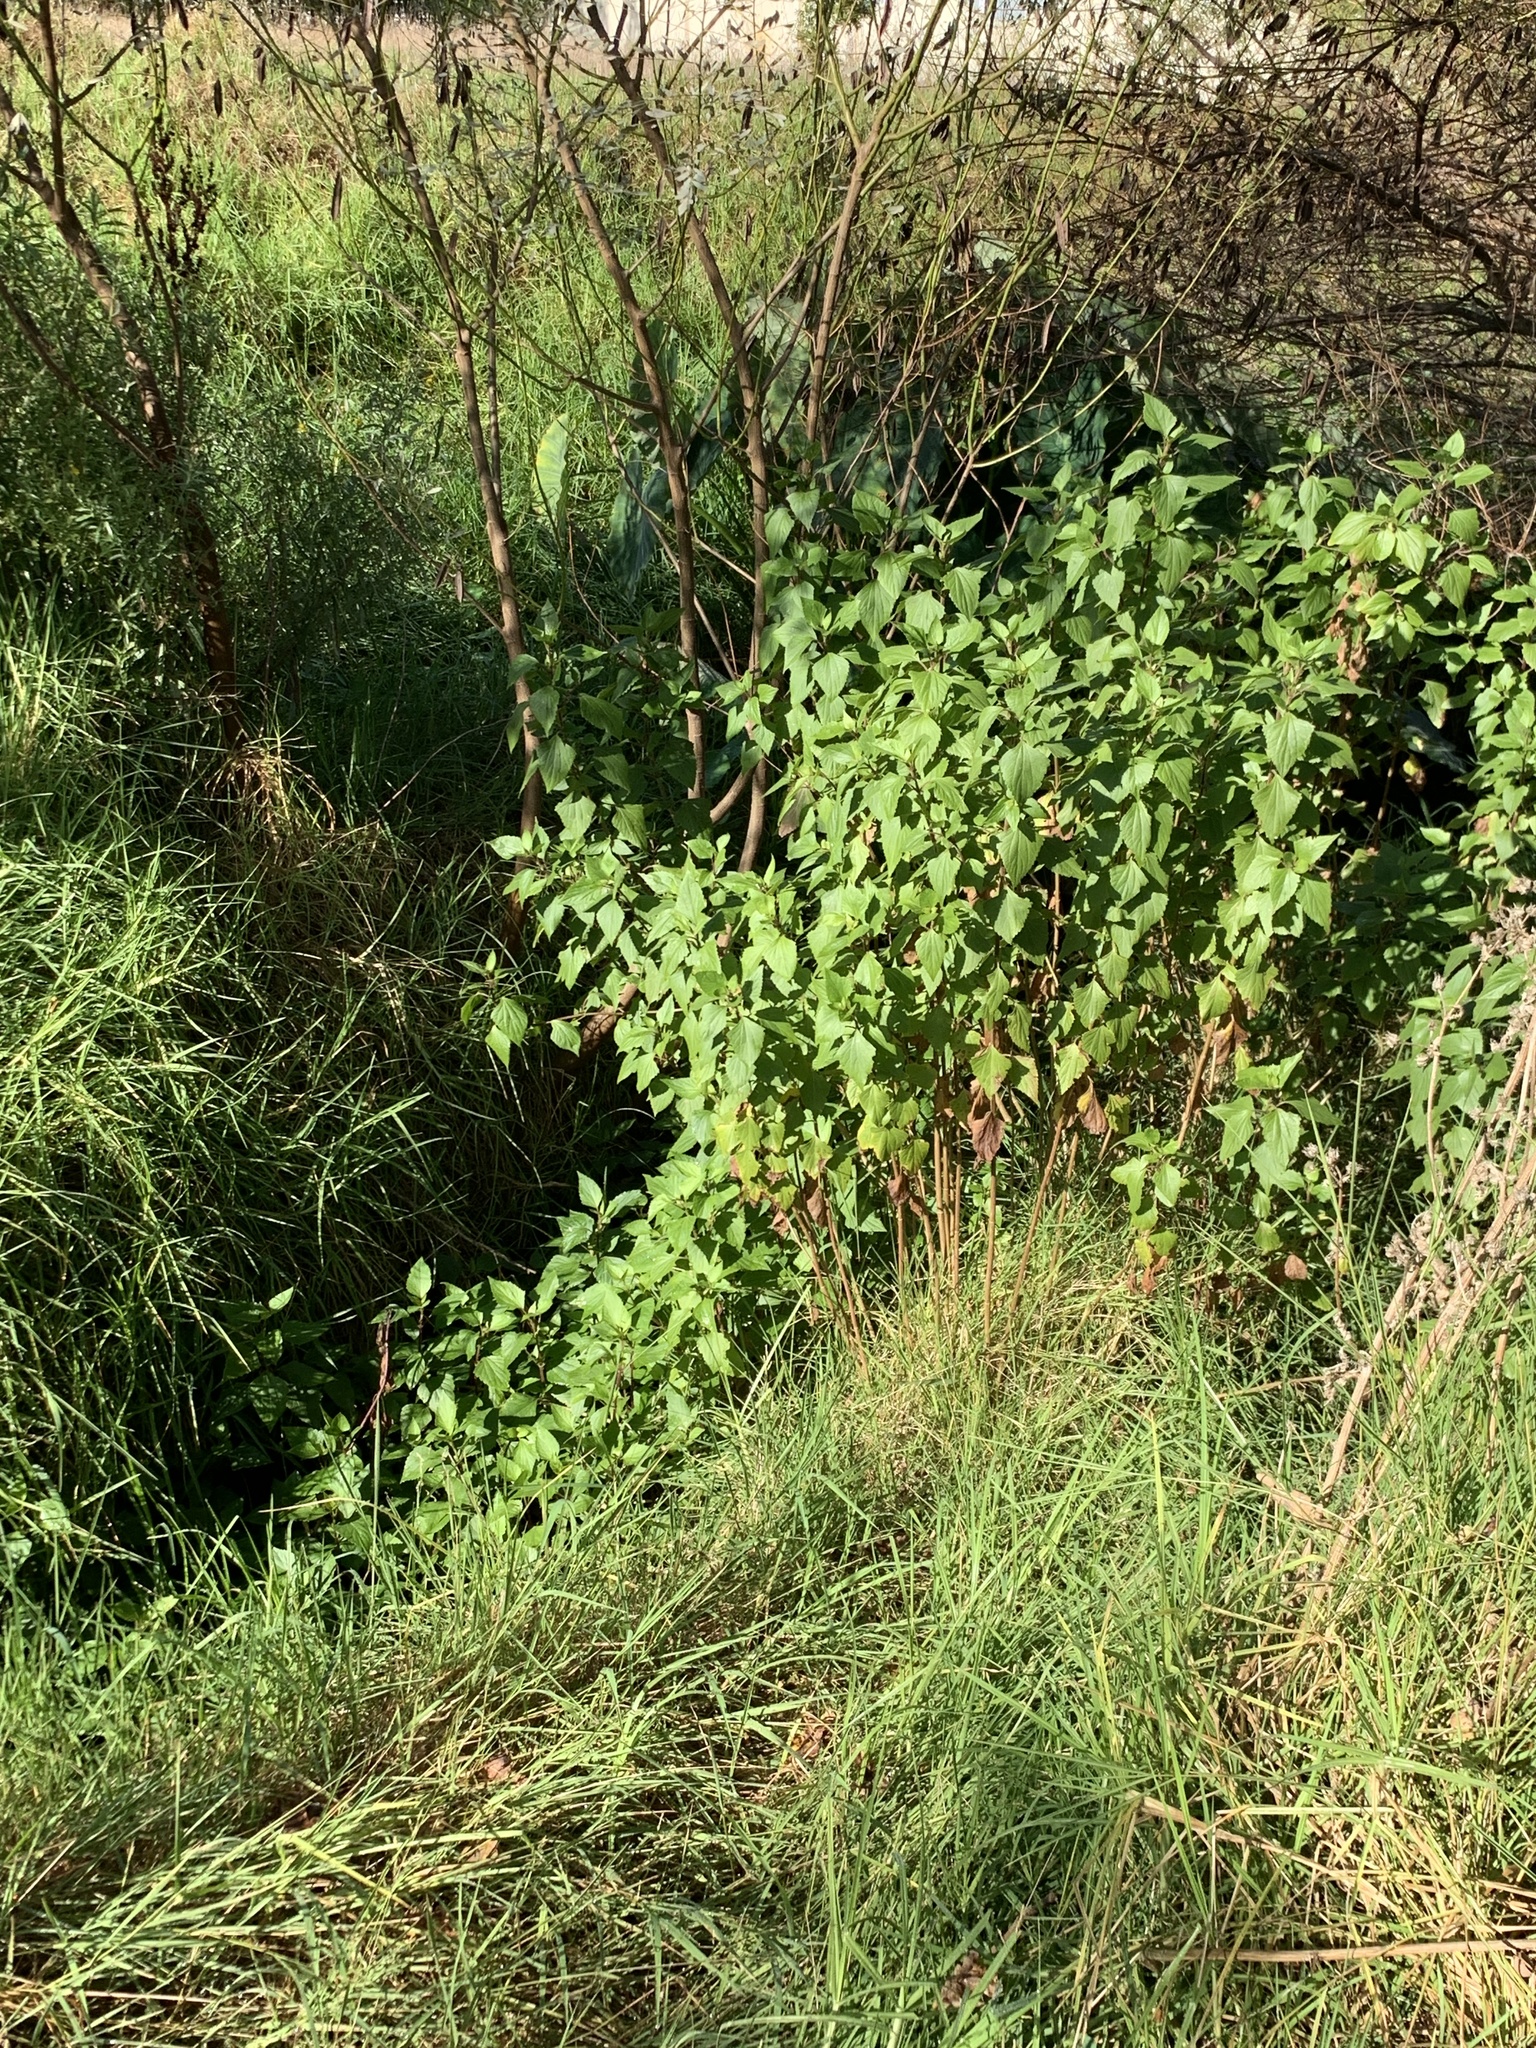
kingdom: Plantae
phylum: Tracheophyta
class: Magnoliopsida
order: Asterales
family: Asteraceae
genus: Ageratina
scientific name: Ageratina adenophora
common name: Sticky snakeroot
